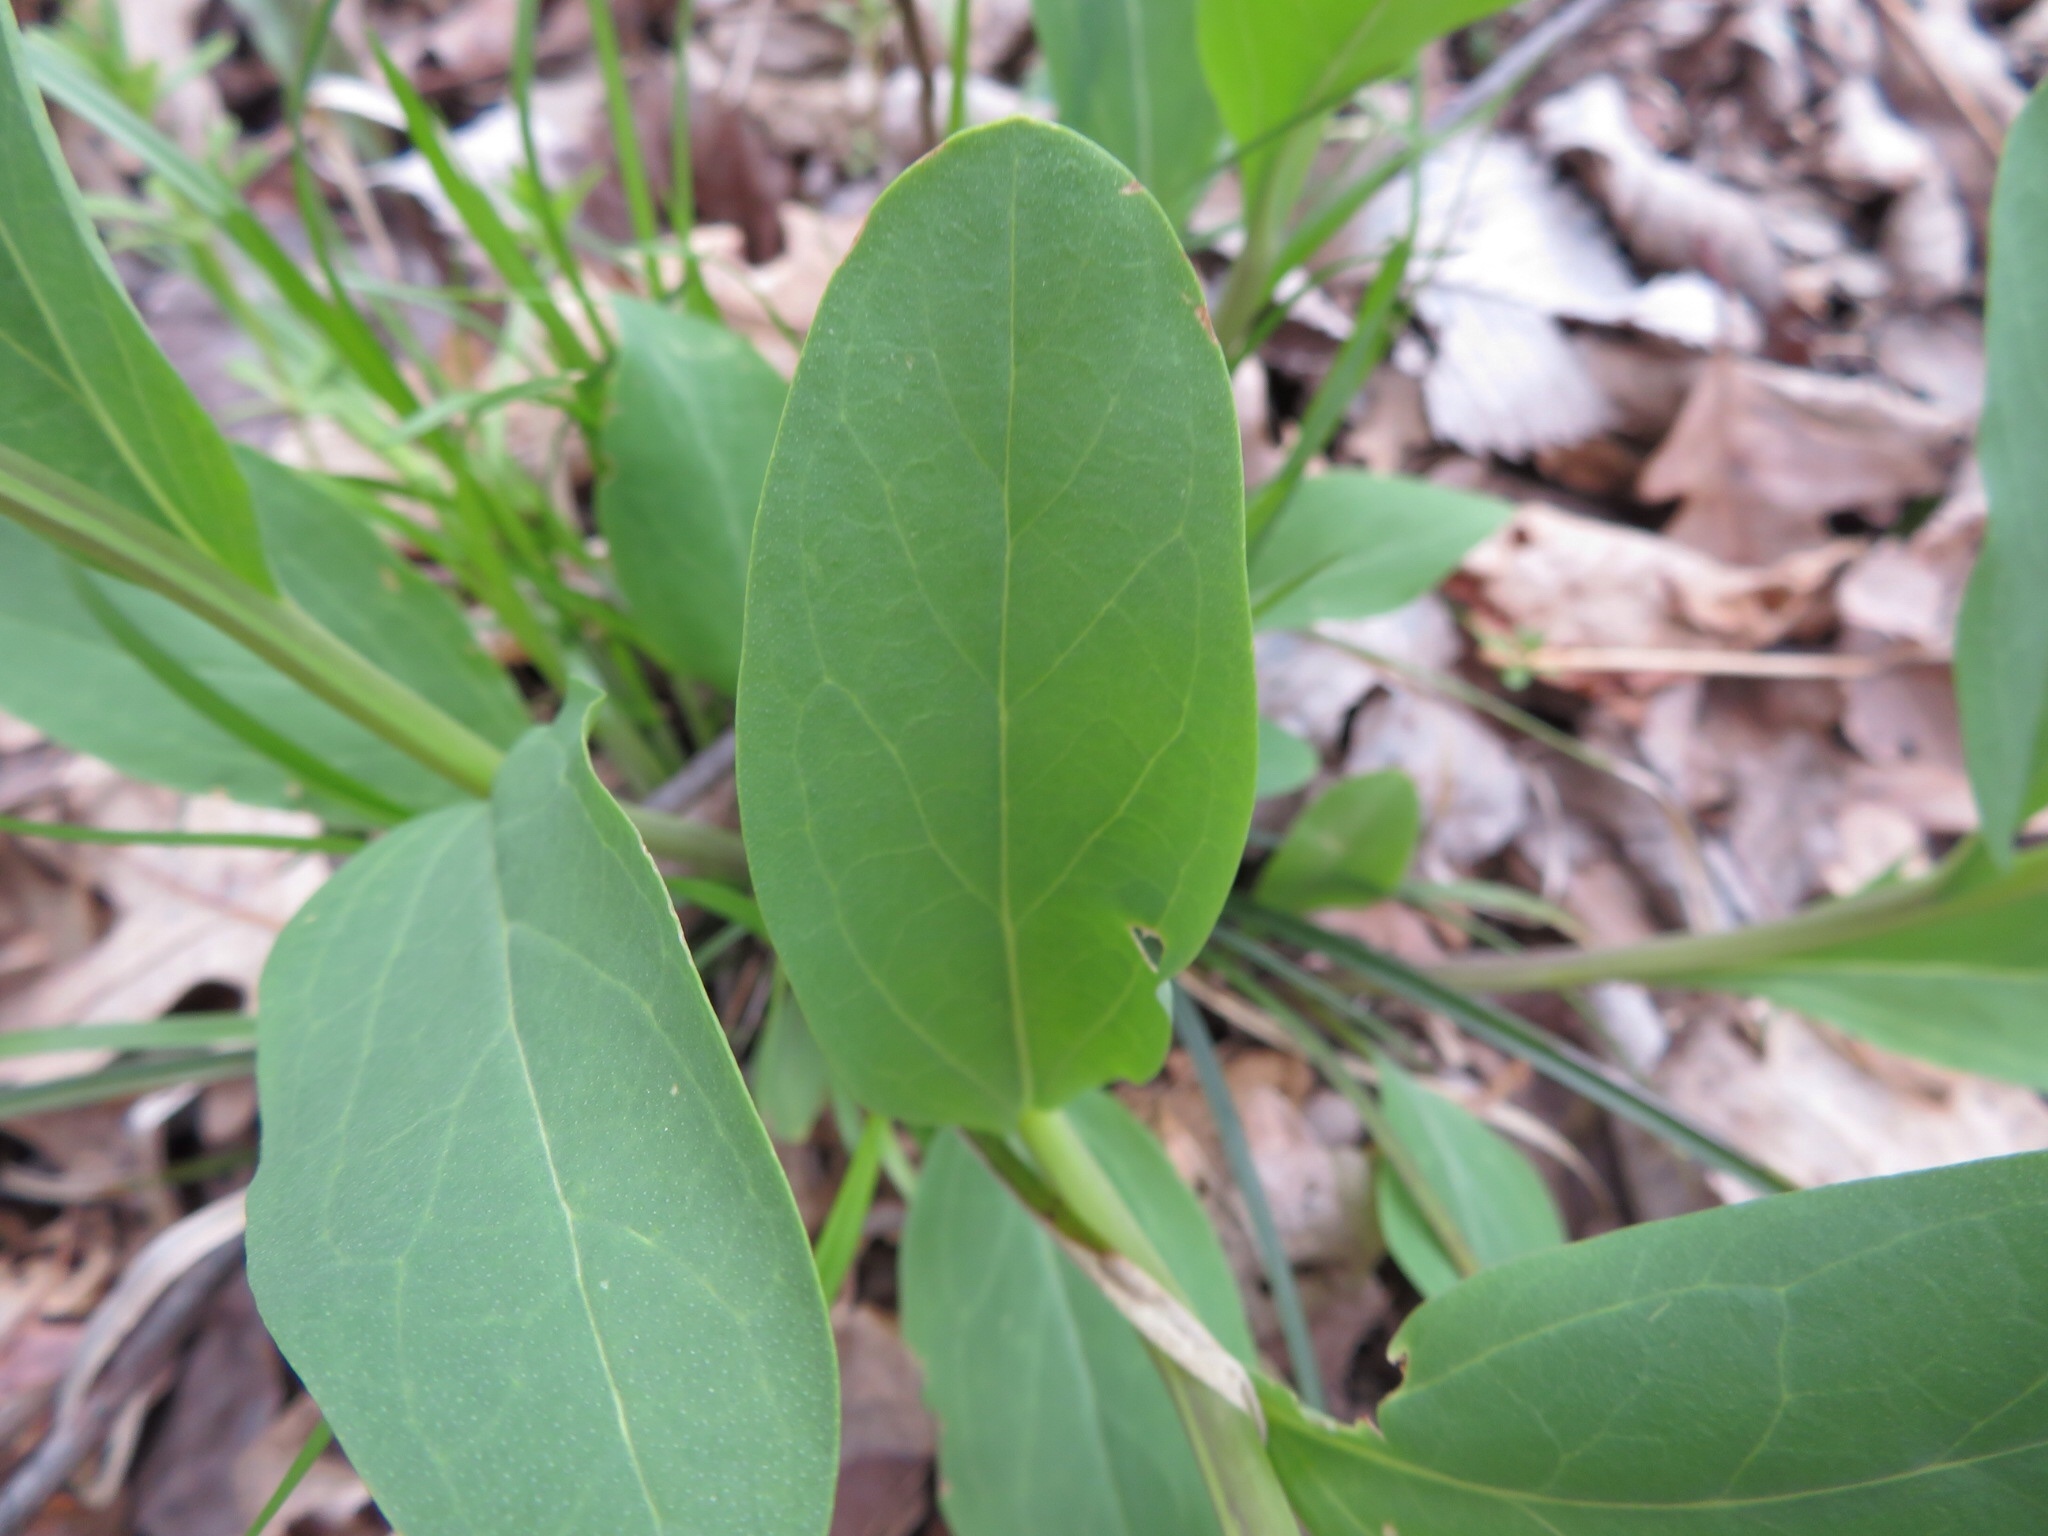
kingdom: Plantae
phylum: Tracheophyta
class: Magnoliopsida
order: Boraginales
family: Boraginaceae
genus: Mertensia
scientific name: Mertensia virginica
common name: Virginia bluebells
